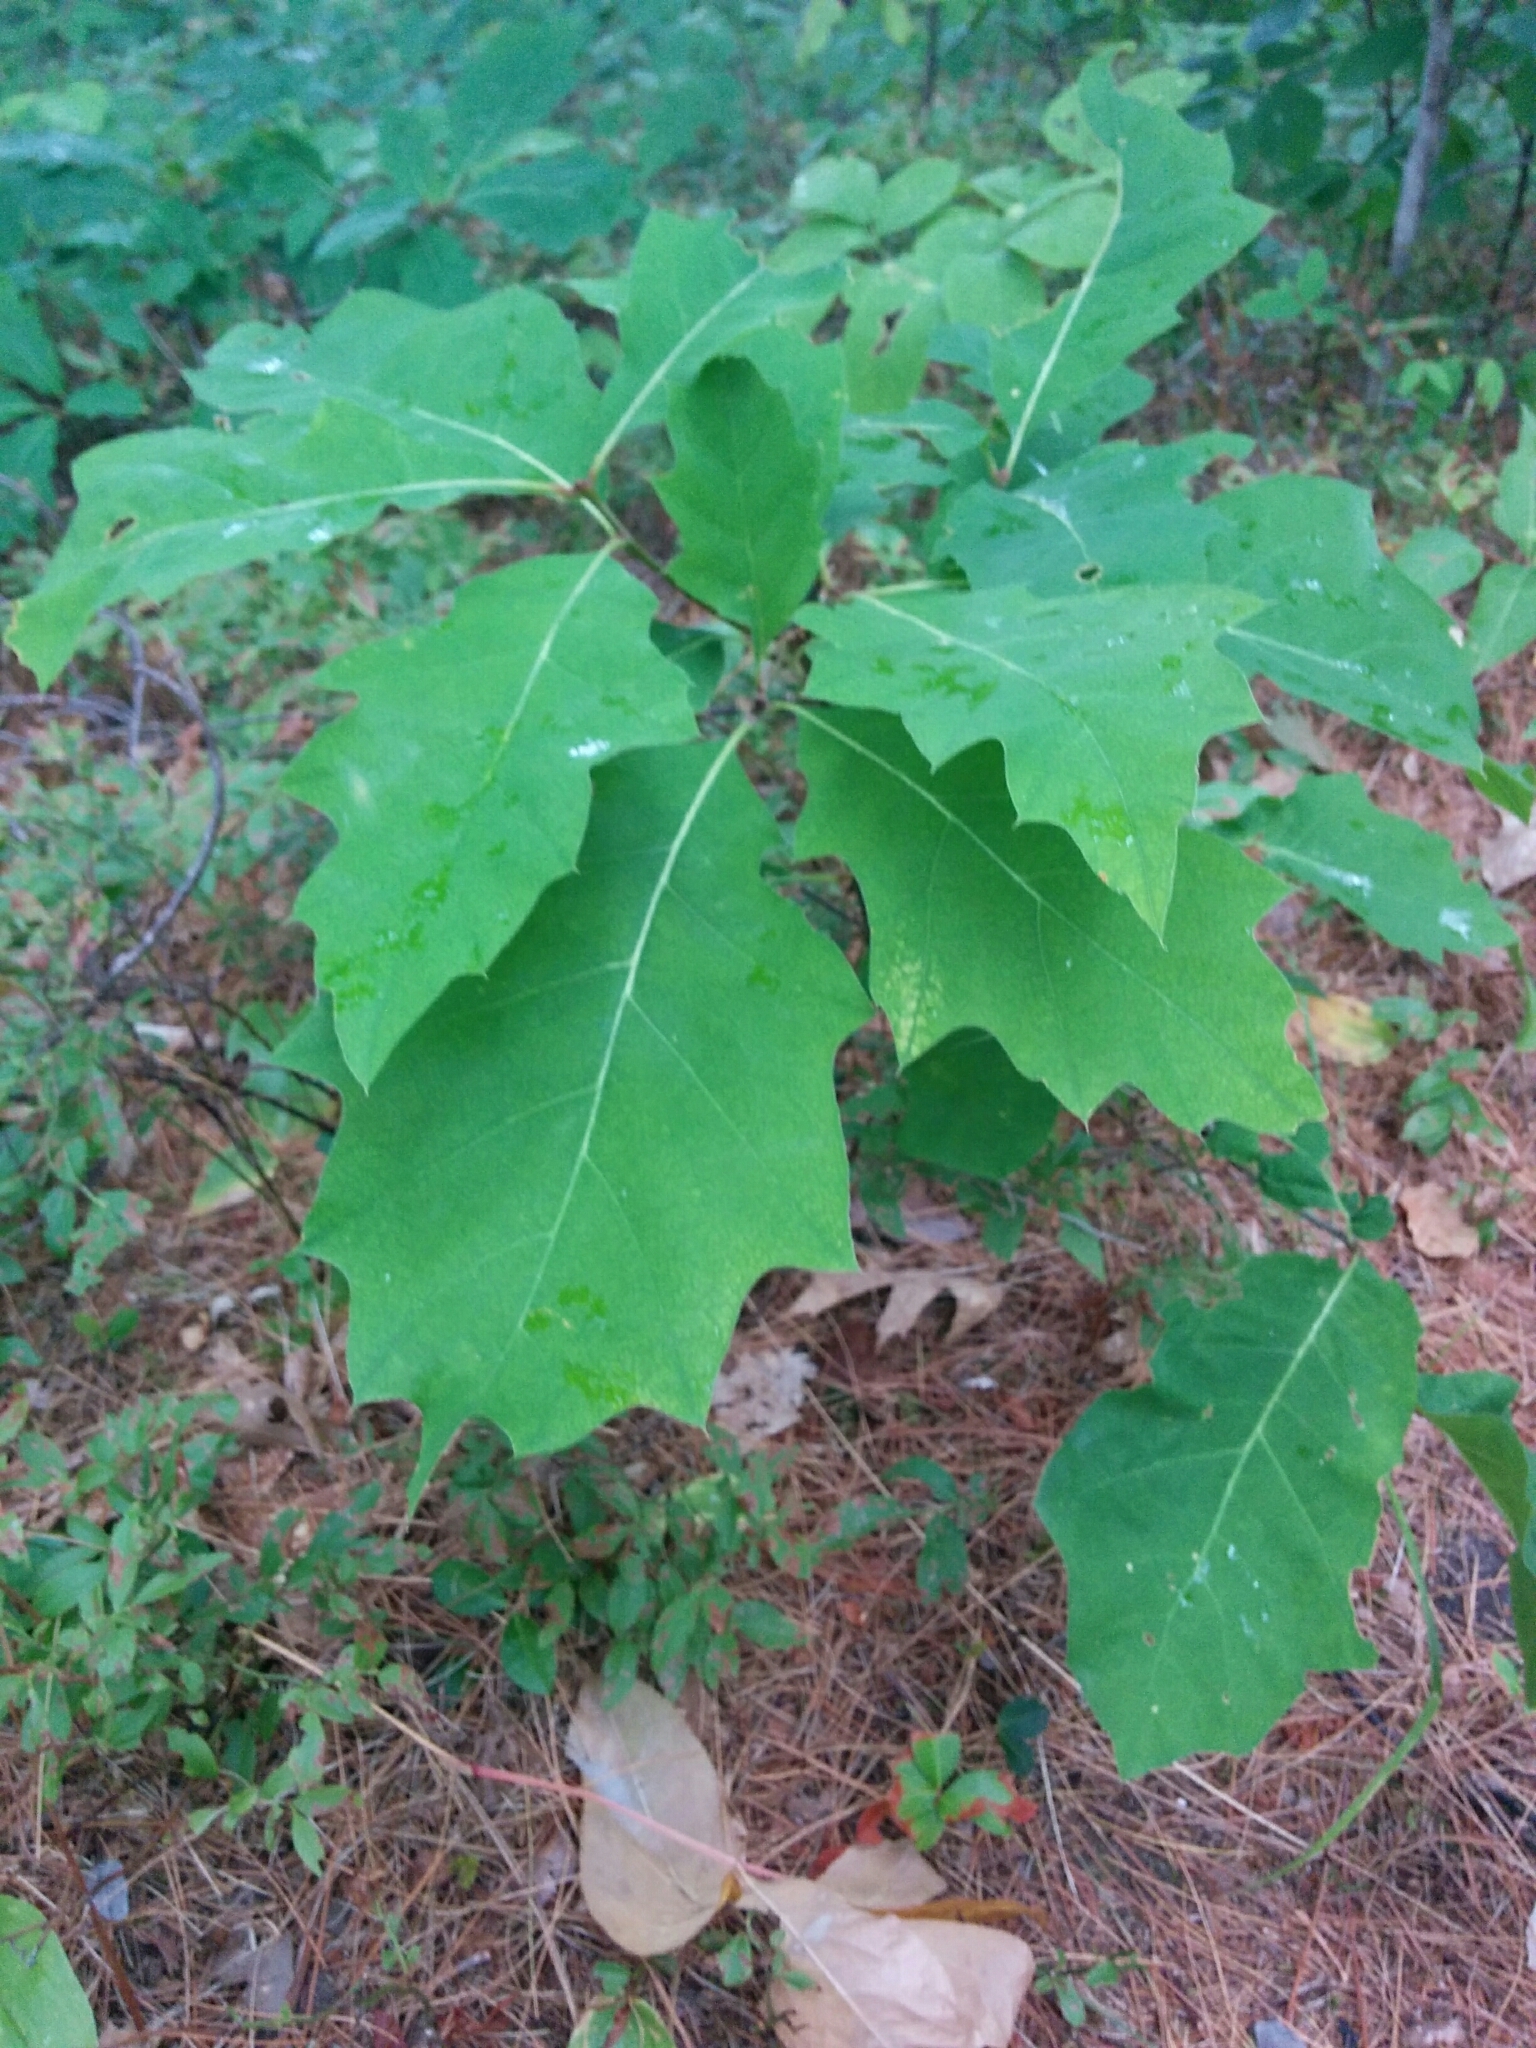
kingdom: Plantae
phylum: Tracheophyta
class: Magnoliopsida
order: Fagales
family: Fagaceae
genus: Quercus
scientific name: Quercus rubra
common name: Red oak
